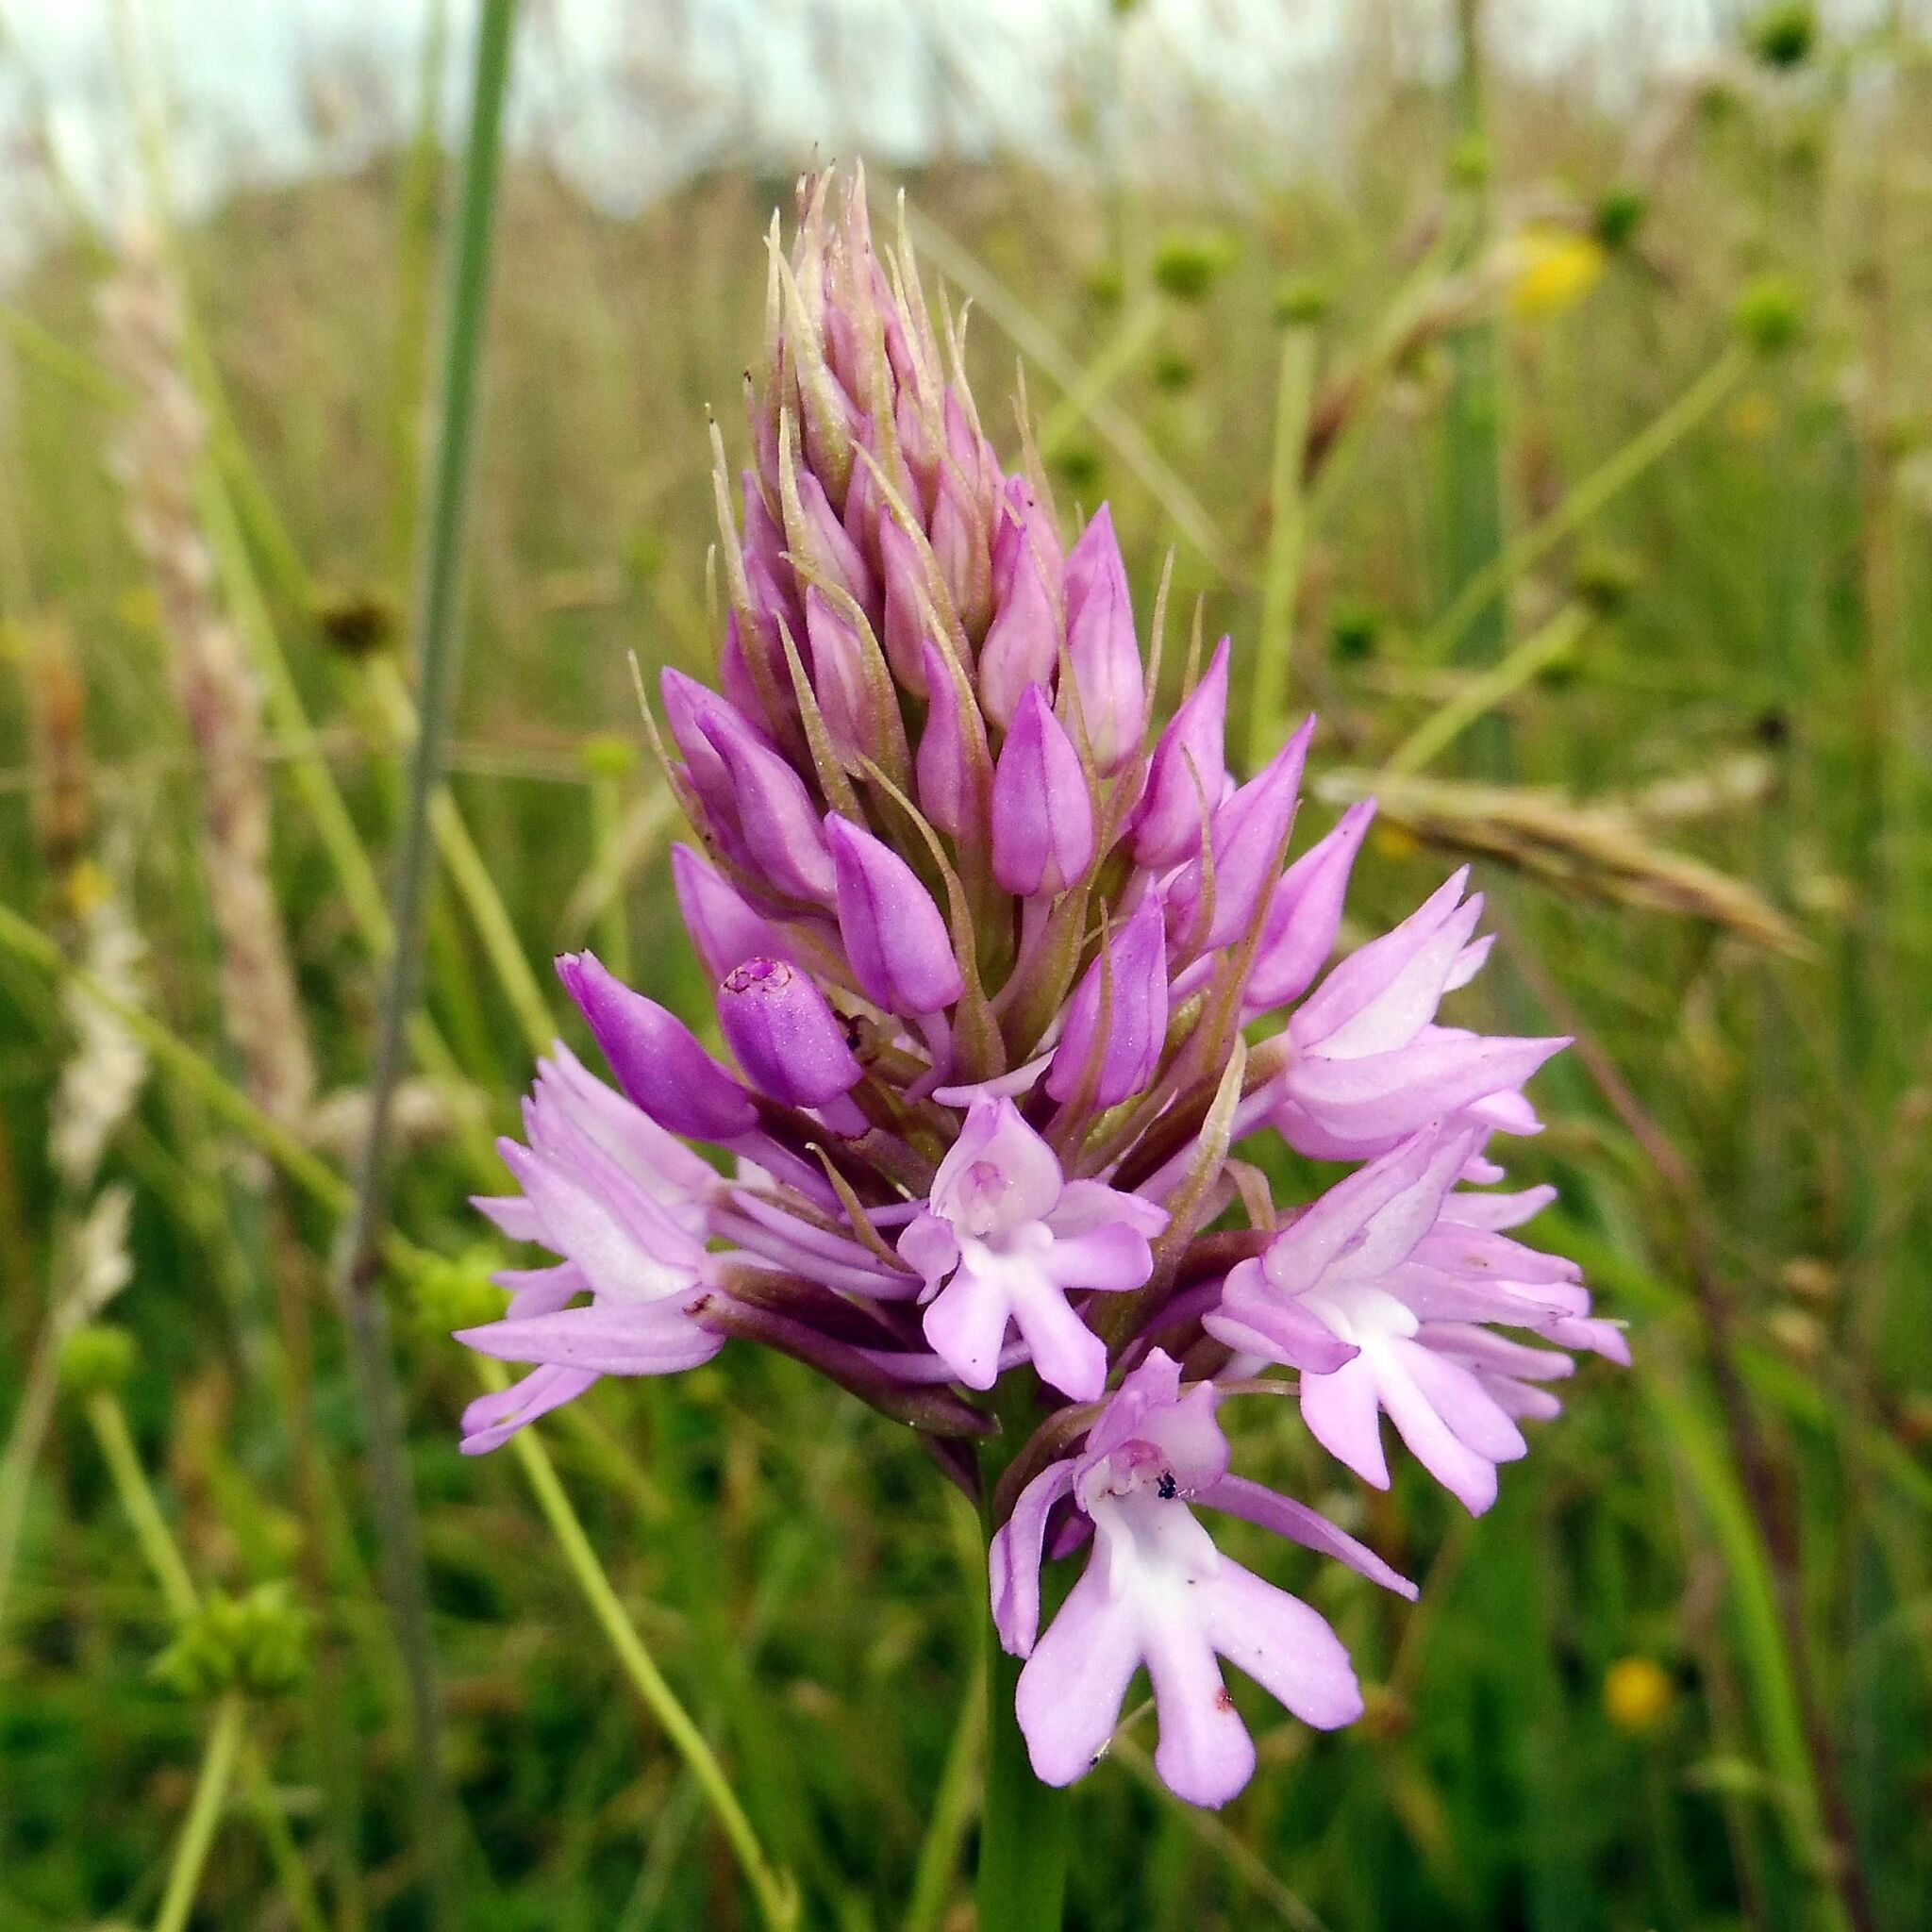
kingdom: Plantae
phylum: Tracheophyta
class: Liliopsida
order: Asparagales
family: Orchidaceae
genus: Anacamptis
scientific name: Anacamptis pyramidalis
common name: Pyramidal orchid
